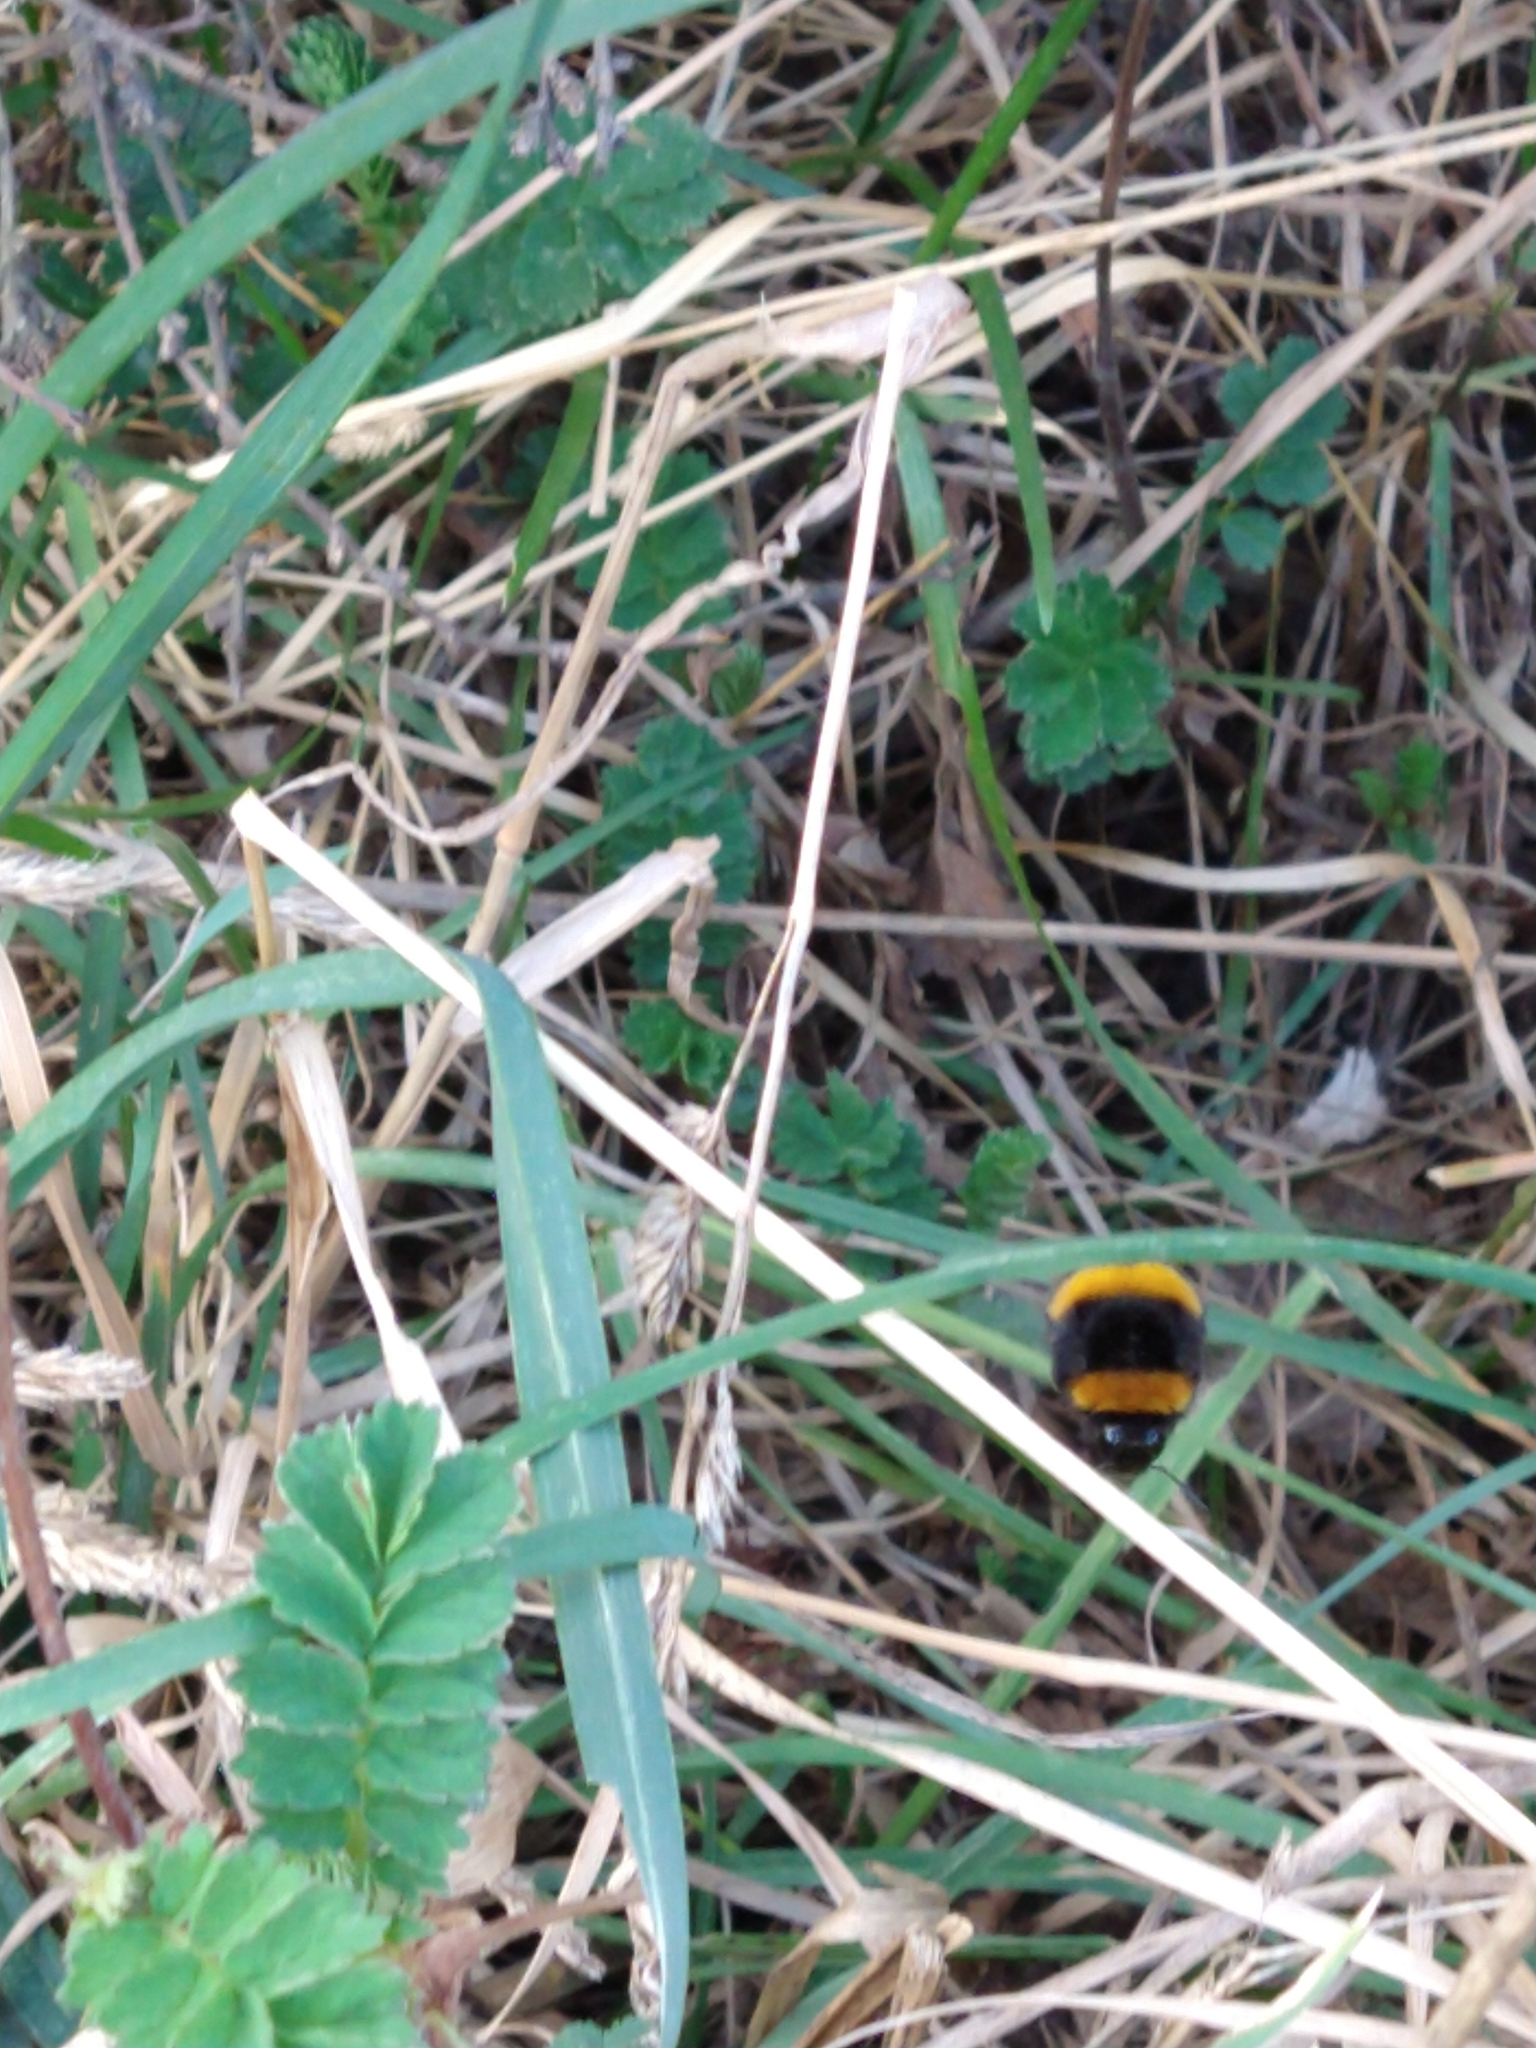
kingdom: Animalia
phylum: Arthropoda
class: Insecta
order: Hymenoptera
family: Apidae
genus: Bombus
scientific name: Bombus terrestris
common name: Buff-tailed bumblebee
